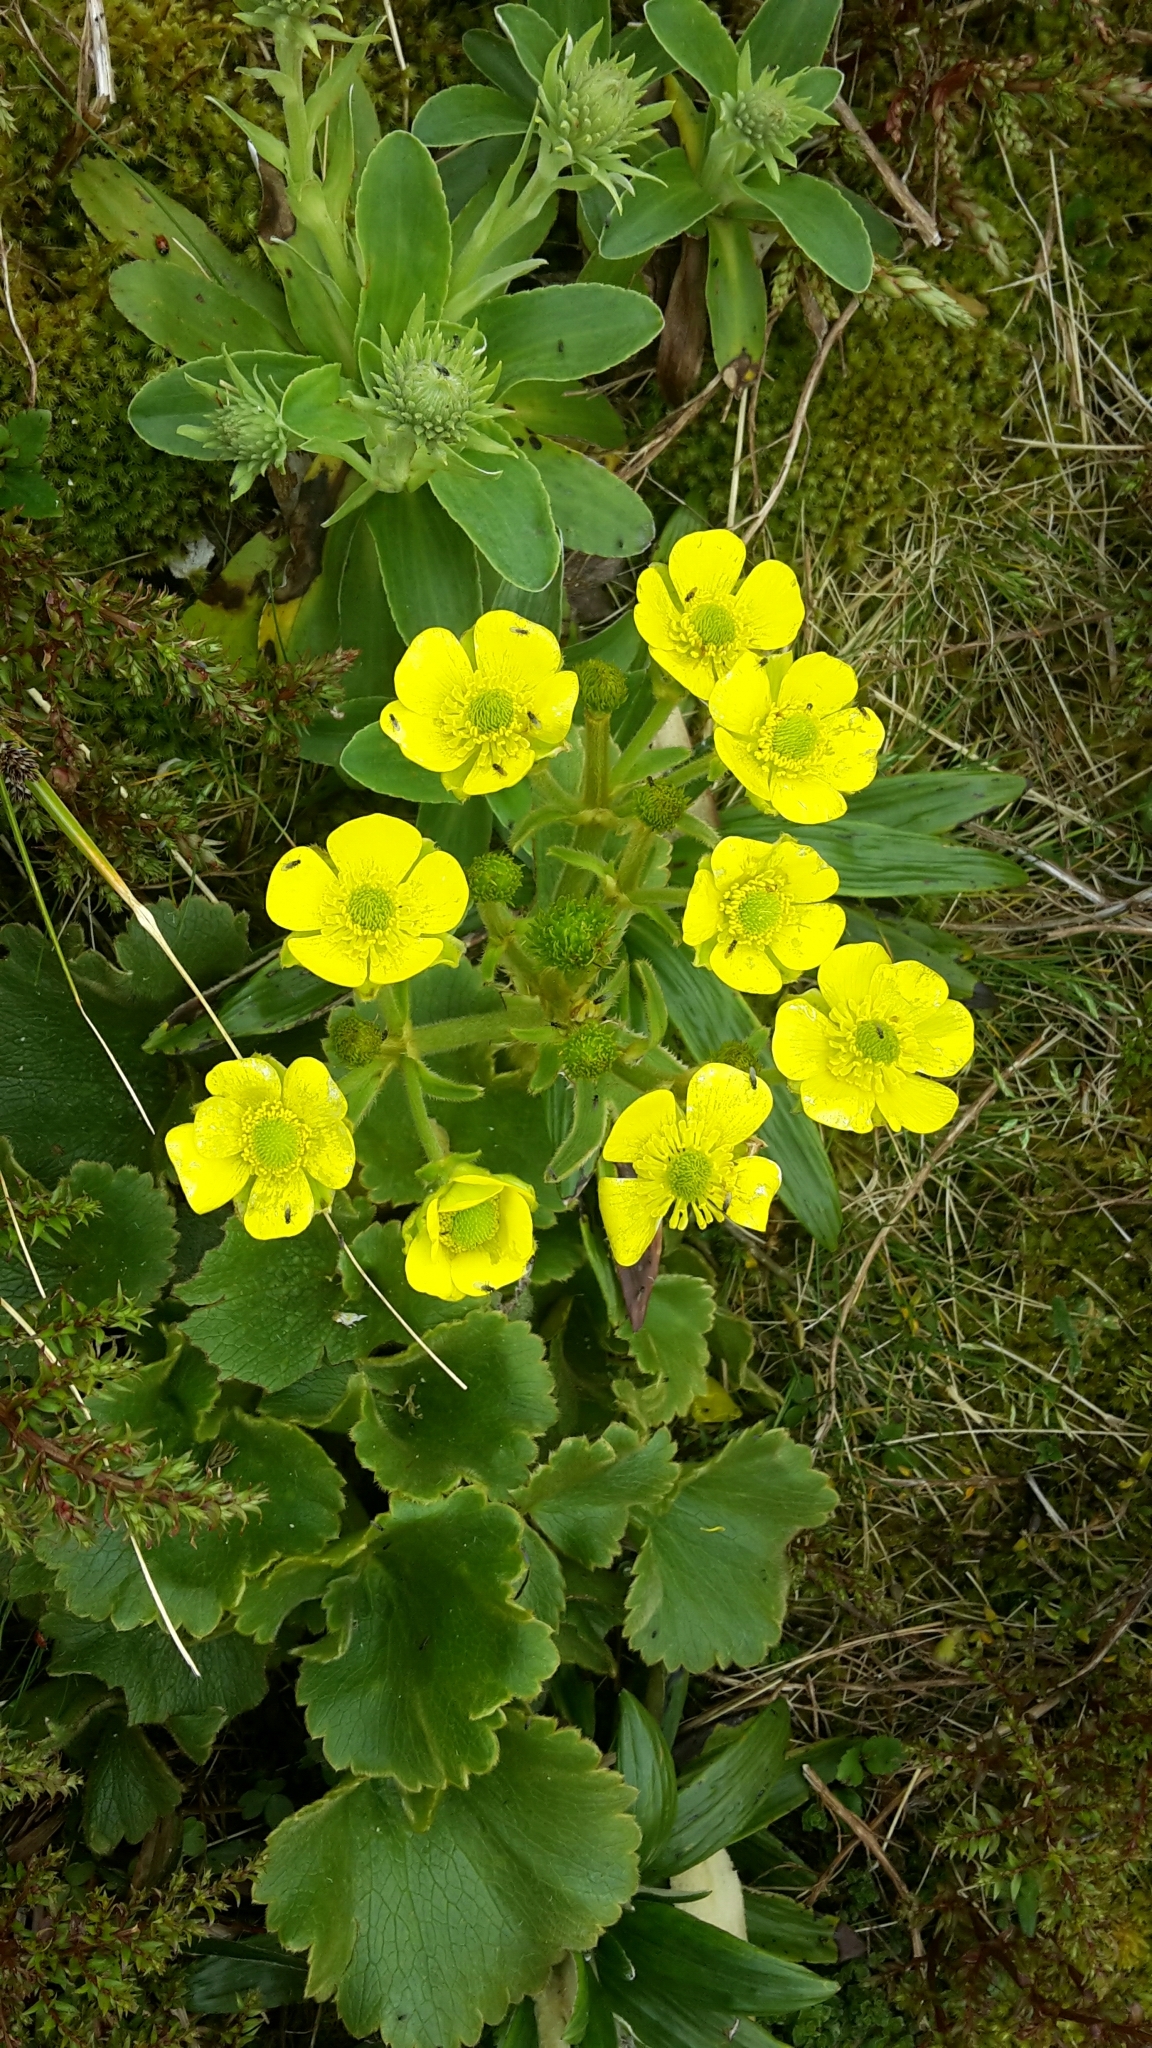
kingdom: Plantae
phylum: Tracheophyta
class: Magnoliopsida
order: Ranunculales
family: Ranunculaceae
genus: Ranunculus
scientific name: Ranunculus insignis
